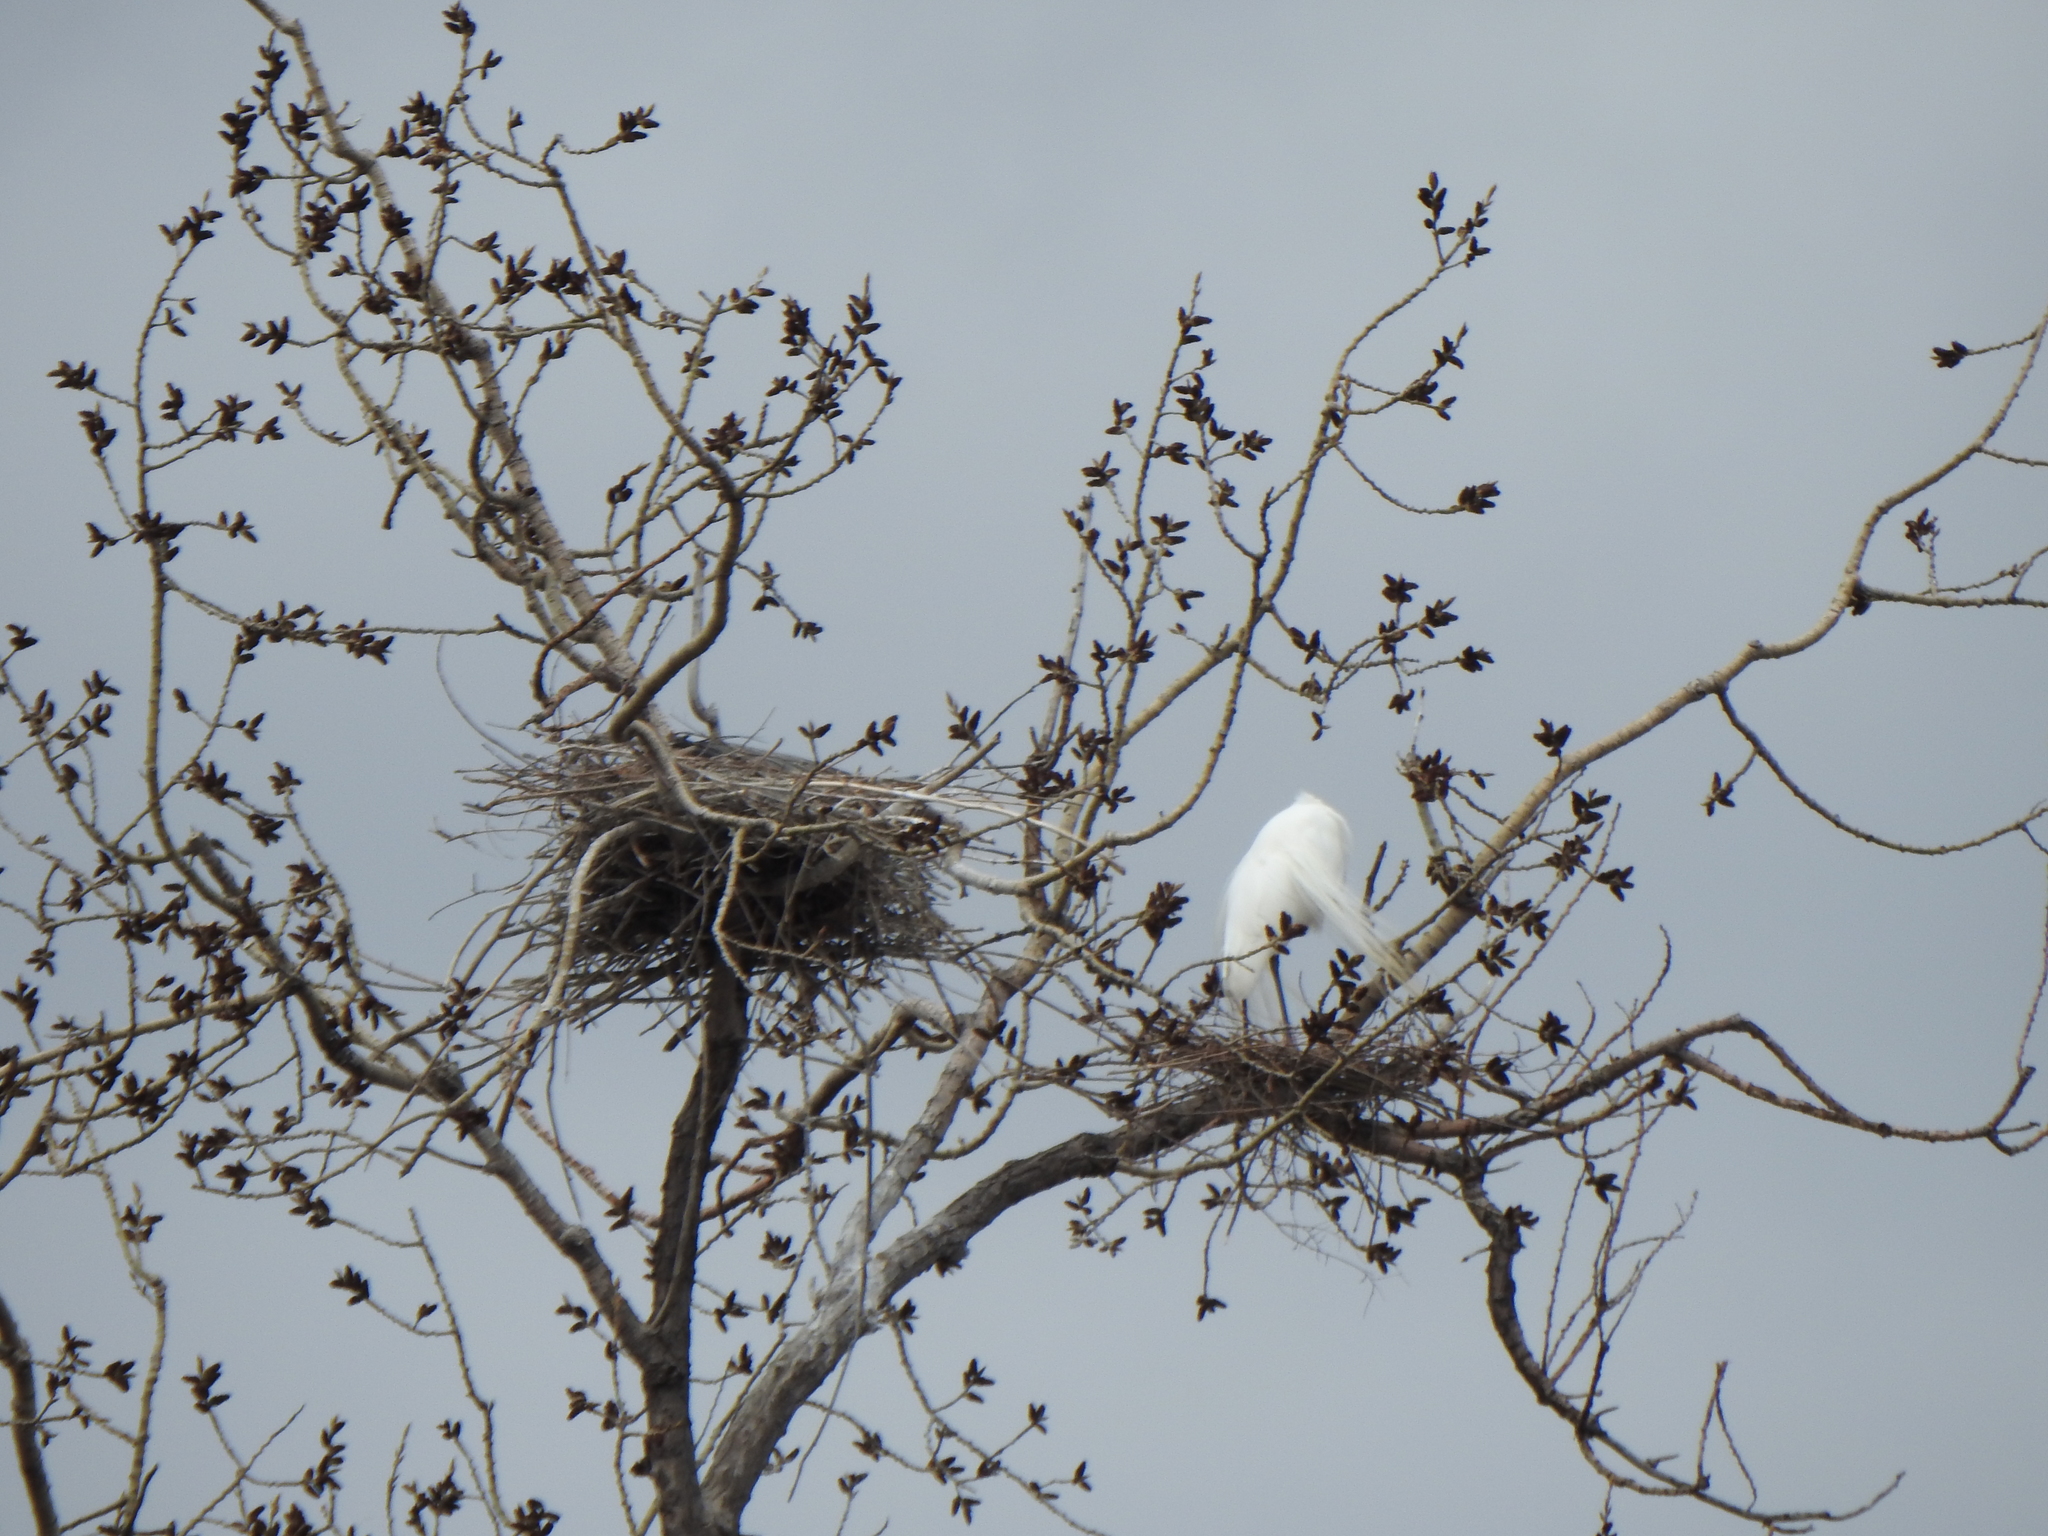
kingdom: Animalia
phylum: Chordata
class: Aves
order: Pelecaniformes
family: Ardeidae
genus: Ardea
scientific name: Ardea alba
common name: Great egret
